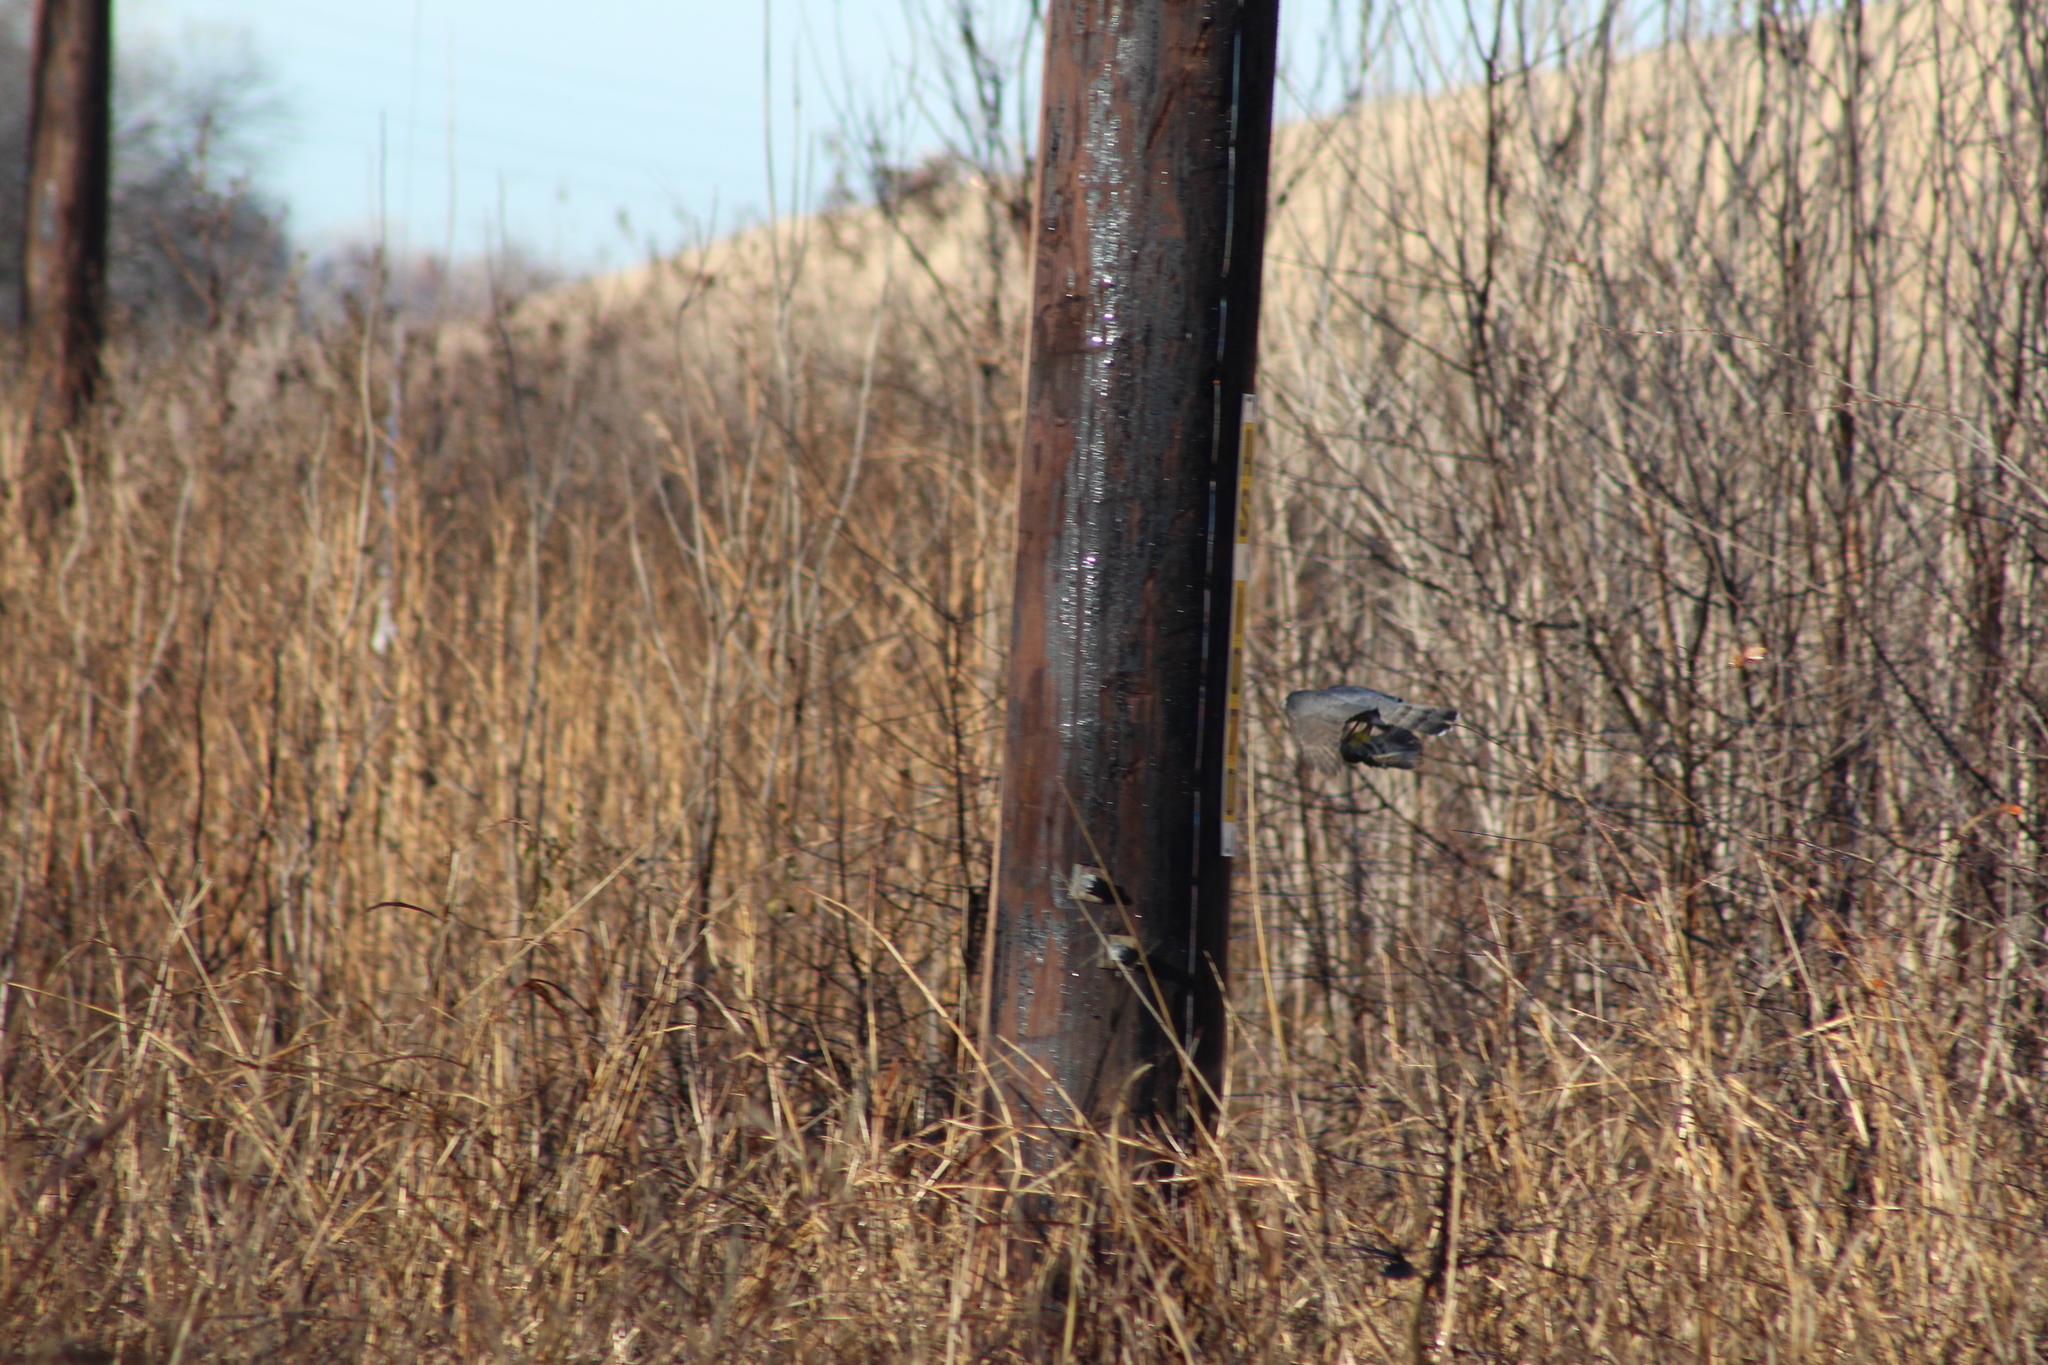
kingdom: Animalia
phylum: Chordata
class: Aves
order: Accipitriformes
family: Accipitridae
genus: Accipiter
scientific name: Accipiter cooperii
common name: Cooper's hawk
